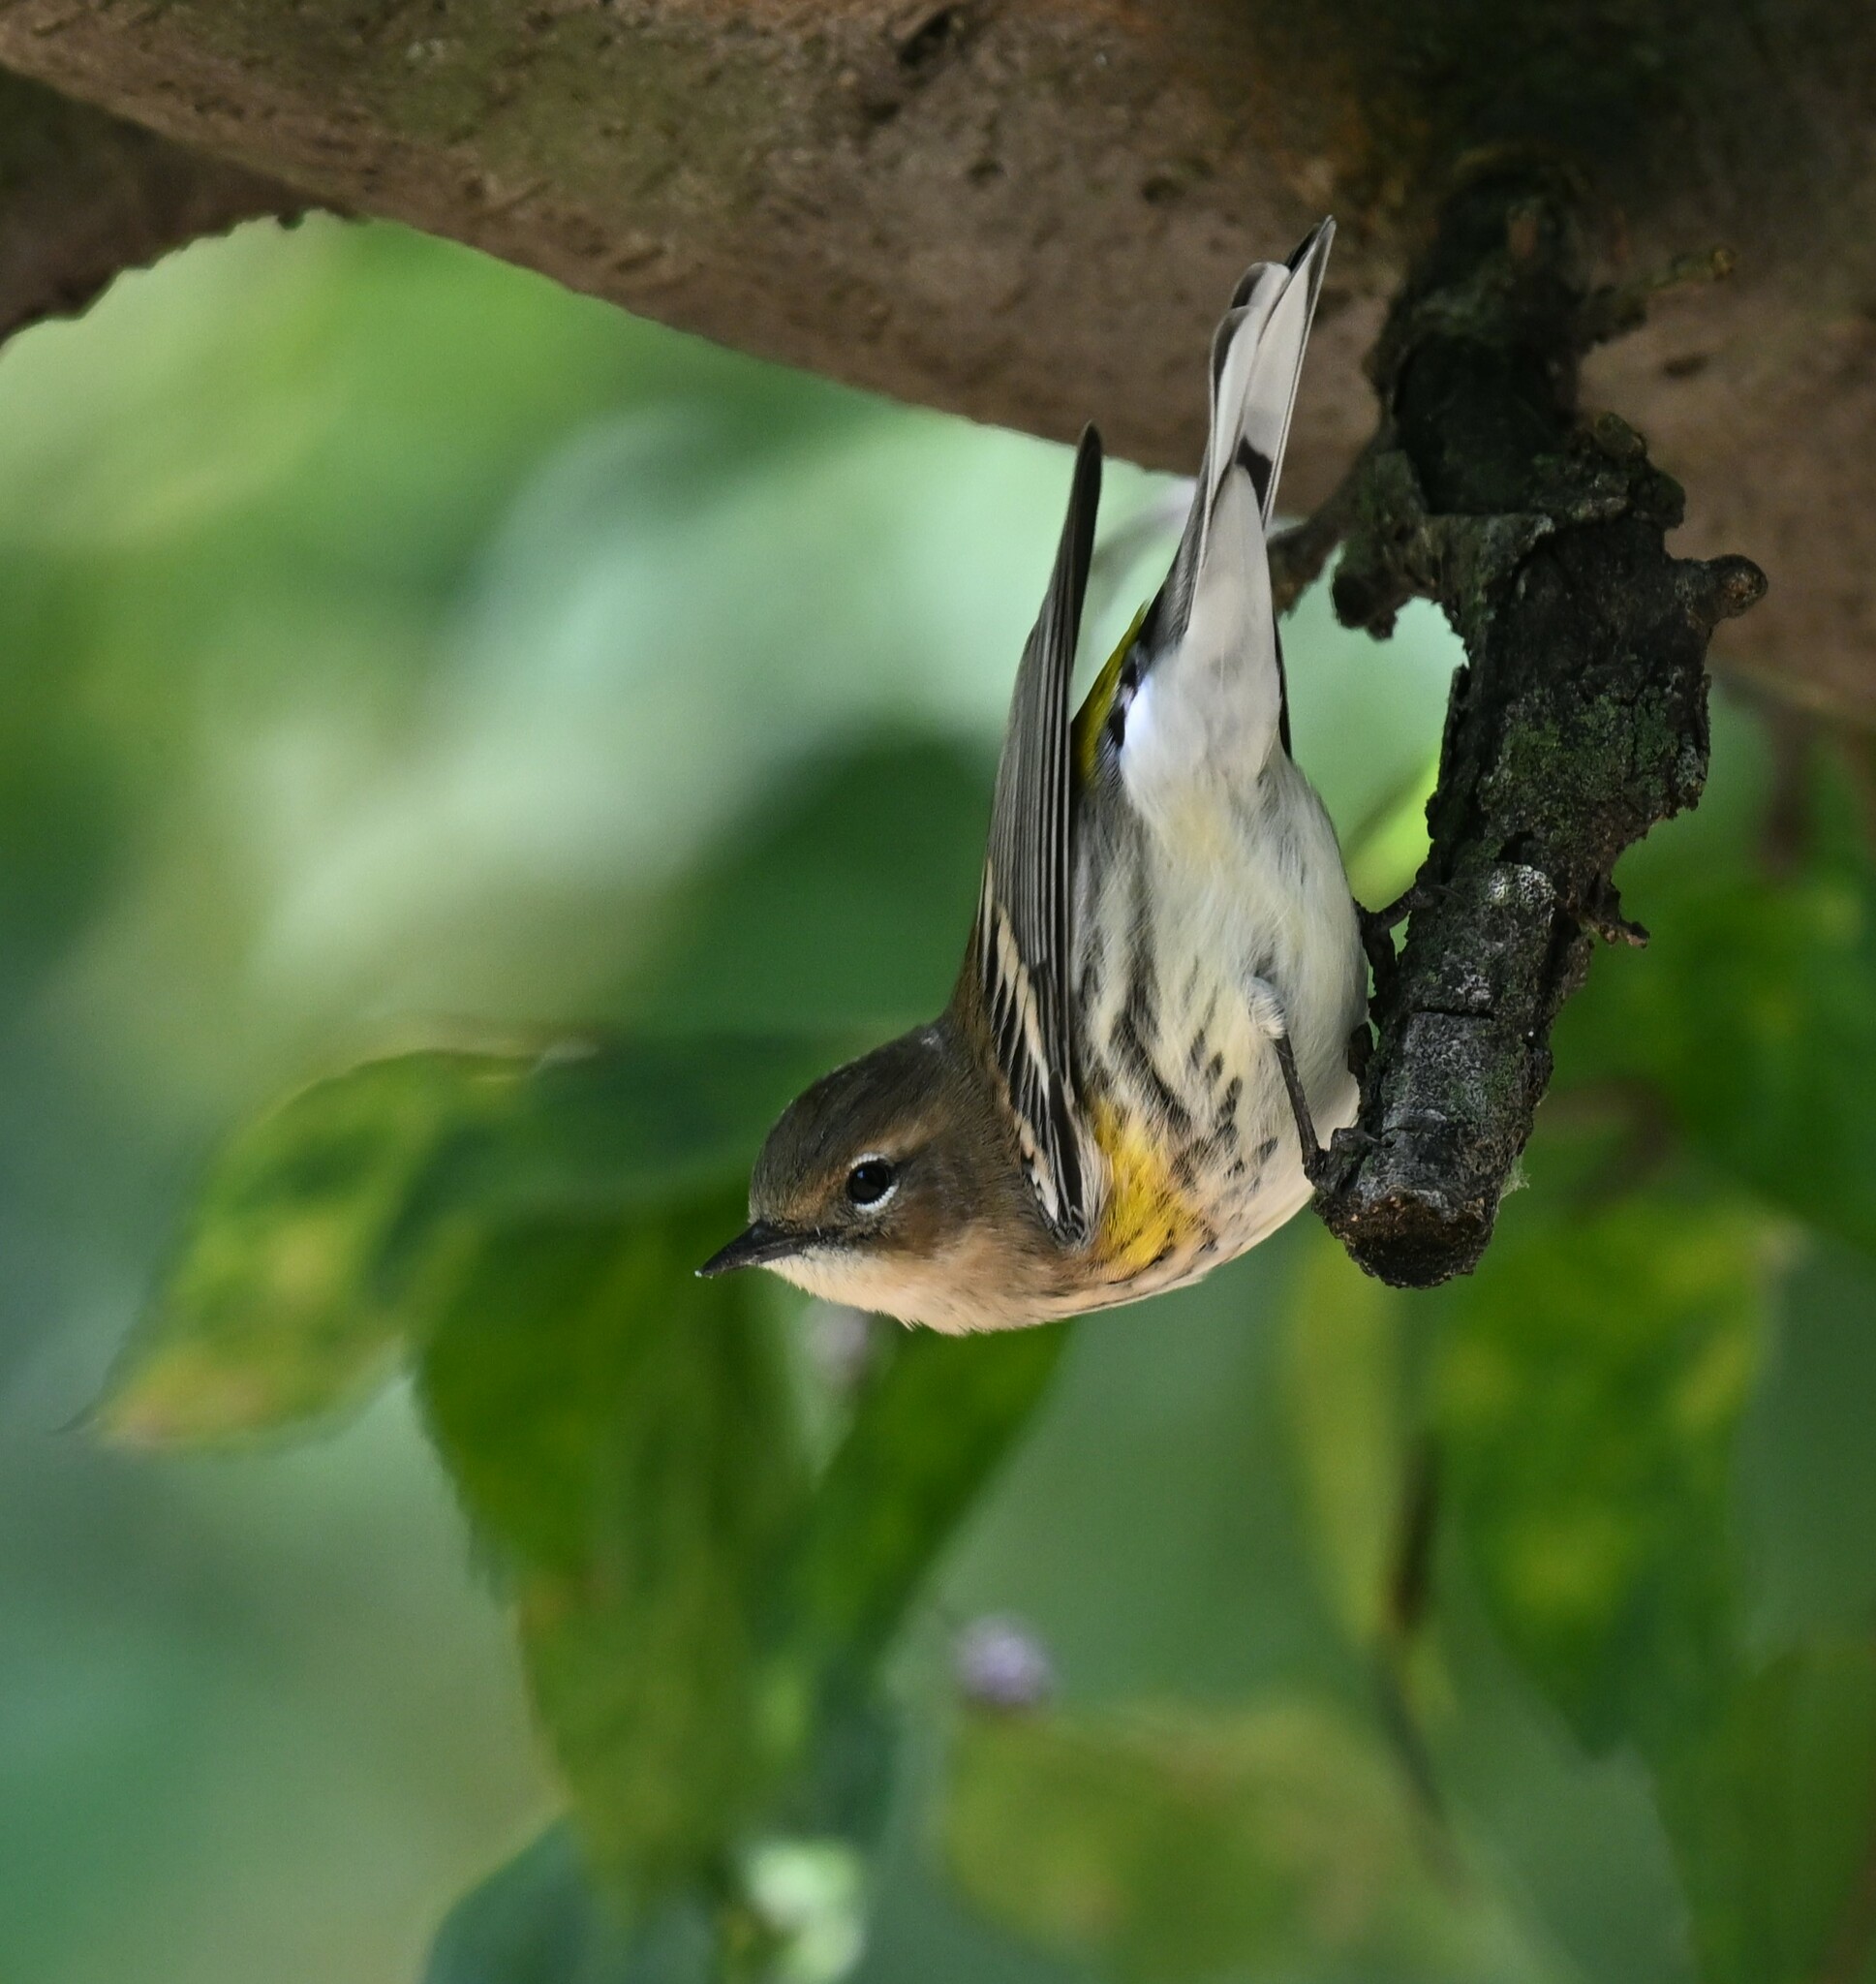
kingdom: Animalia
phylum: Chordata
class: Aves
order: Passeriformes
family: Parulidae
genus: Setophaga
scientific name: Setophaga coronata
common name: Myrtle warbler
